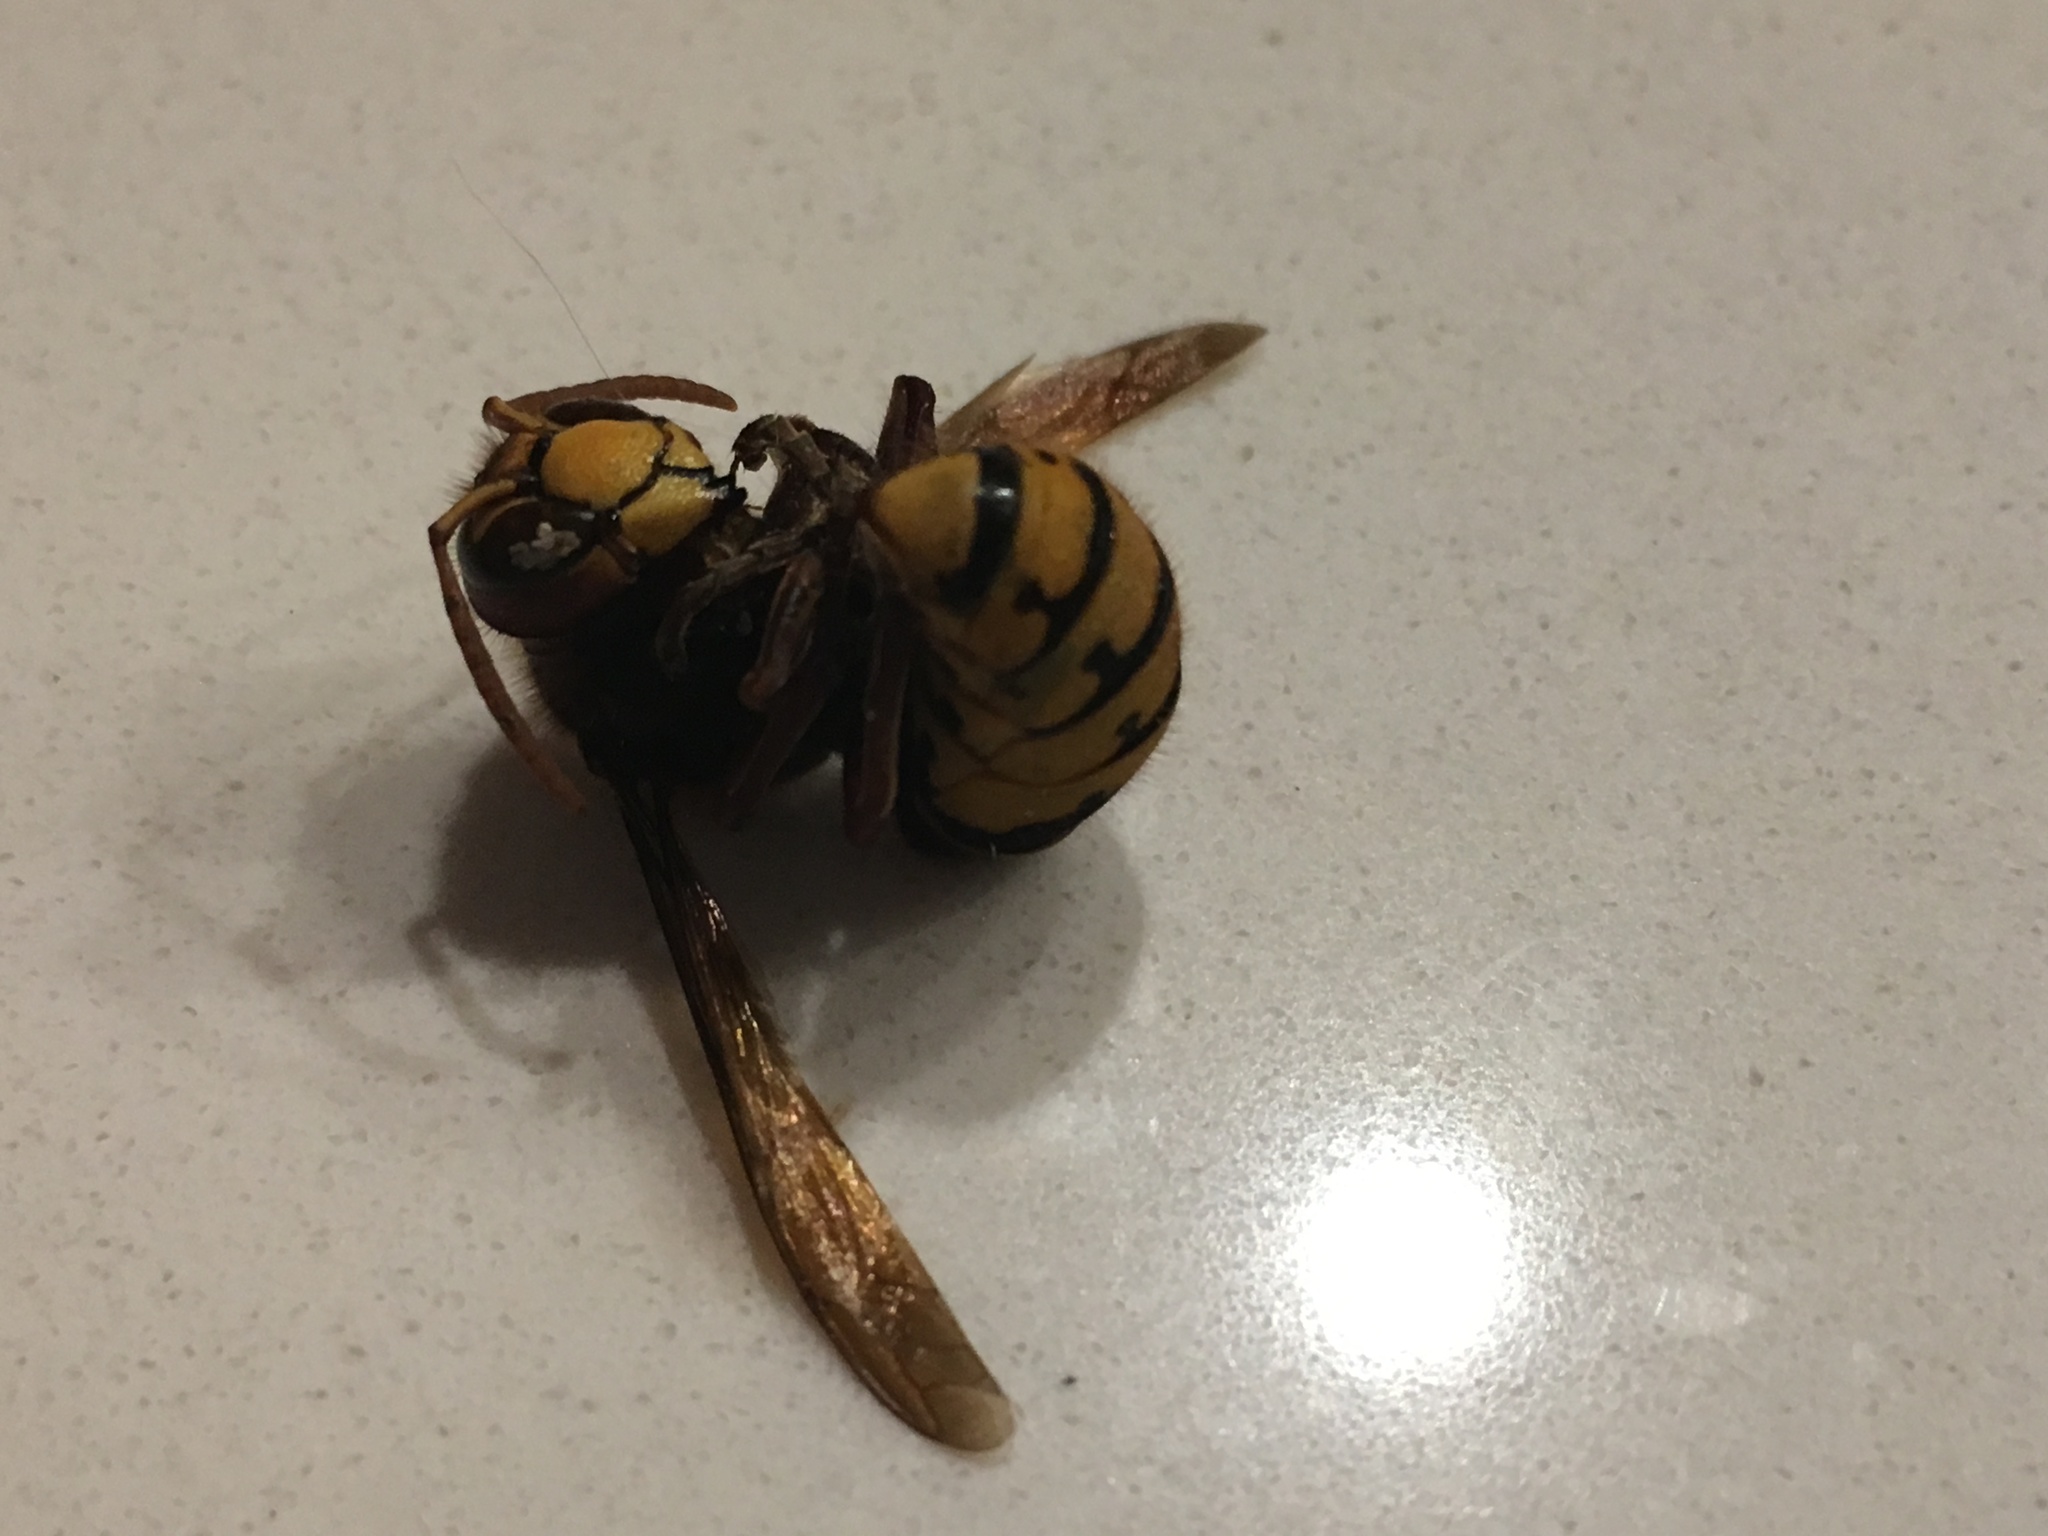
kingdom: Animalia
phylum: Arthropoda
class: Insecta
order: Hymenoptera
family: Vespidae
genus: Vespa
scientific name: Vespa crabro
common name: Hornet
